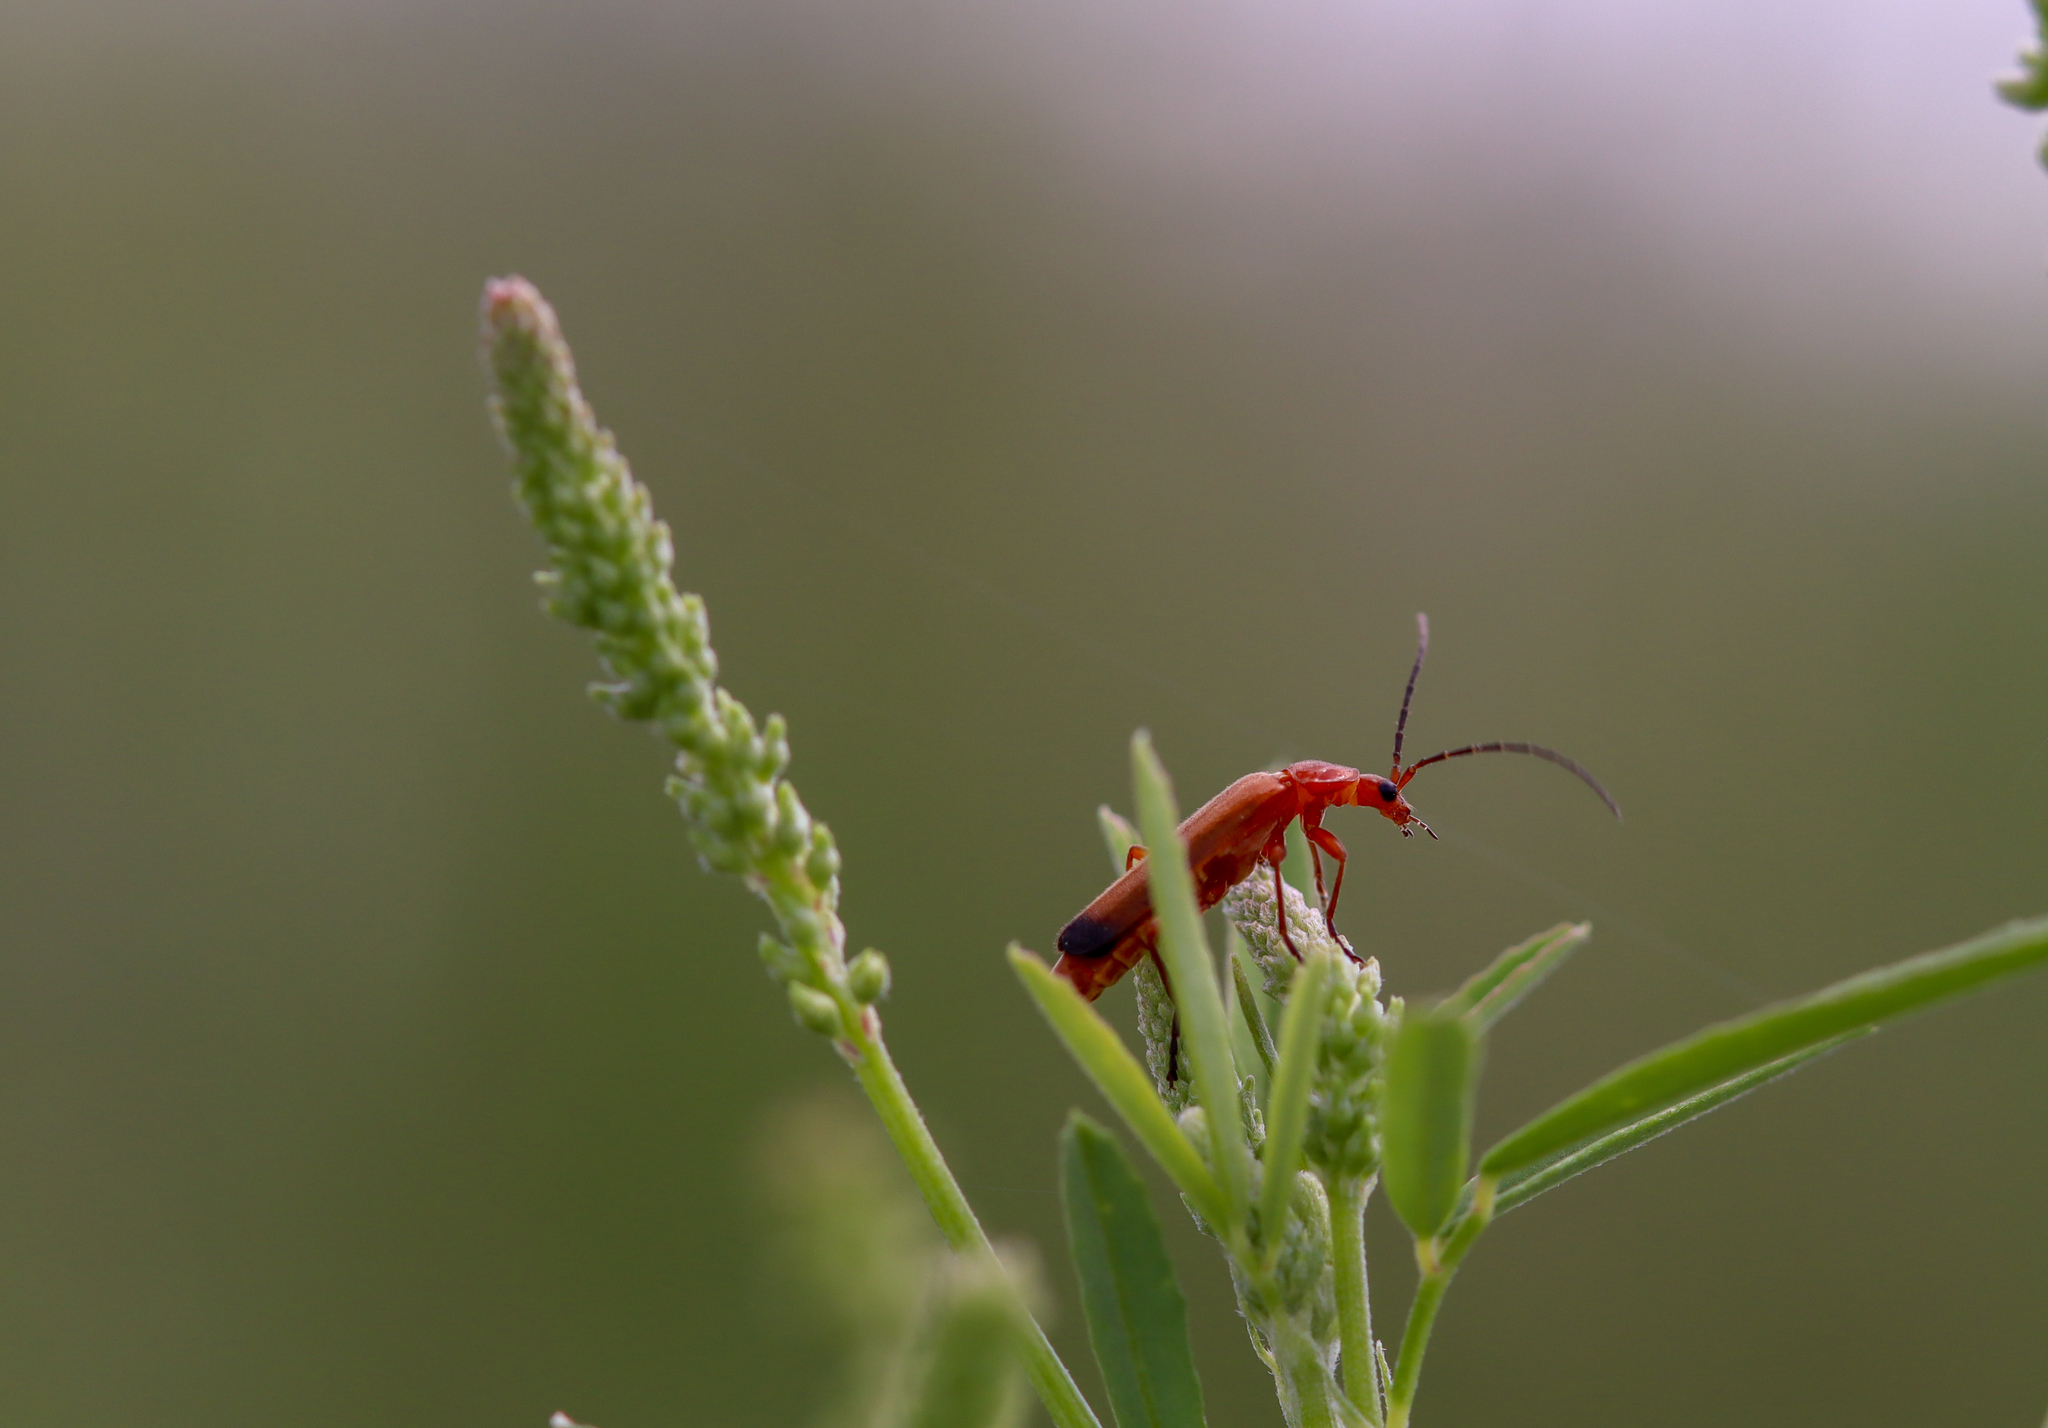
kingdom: Animalia
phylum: Arthropoda
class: Insecta
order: Coleoptera
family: Cantharidae
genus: Rhagonycha
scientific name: Rhagonycha fulva
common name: Common red soldier beetle
